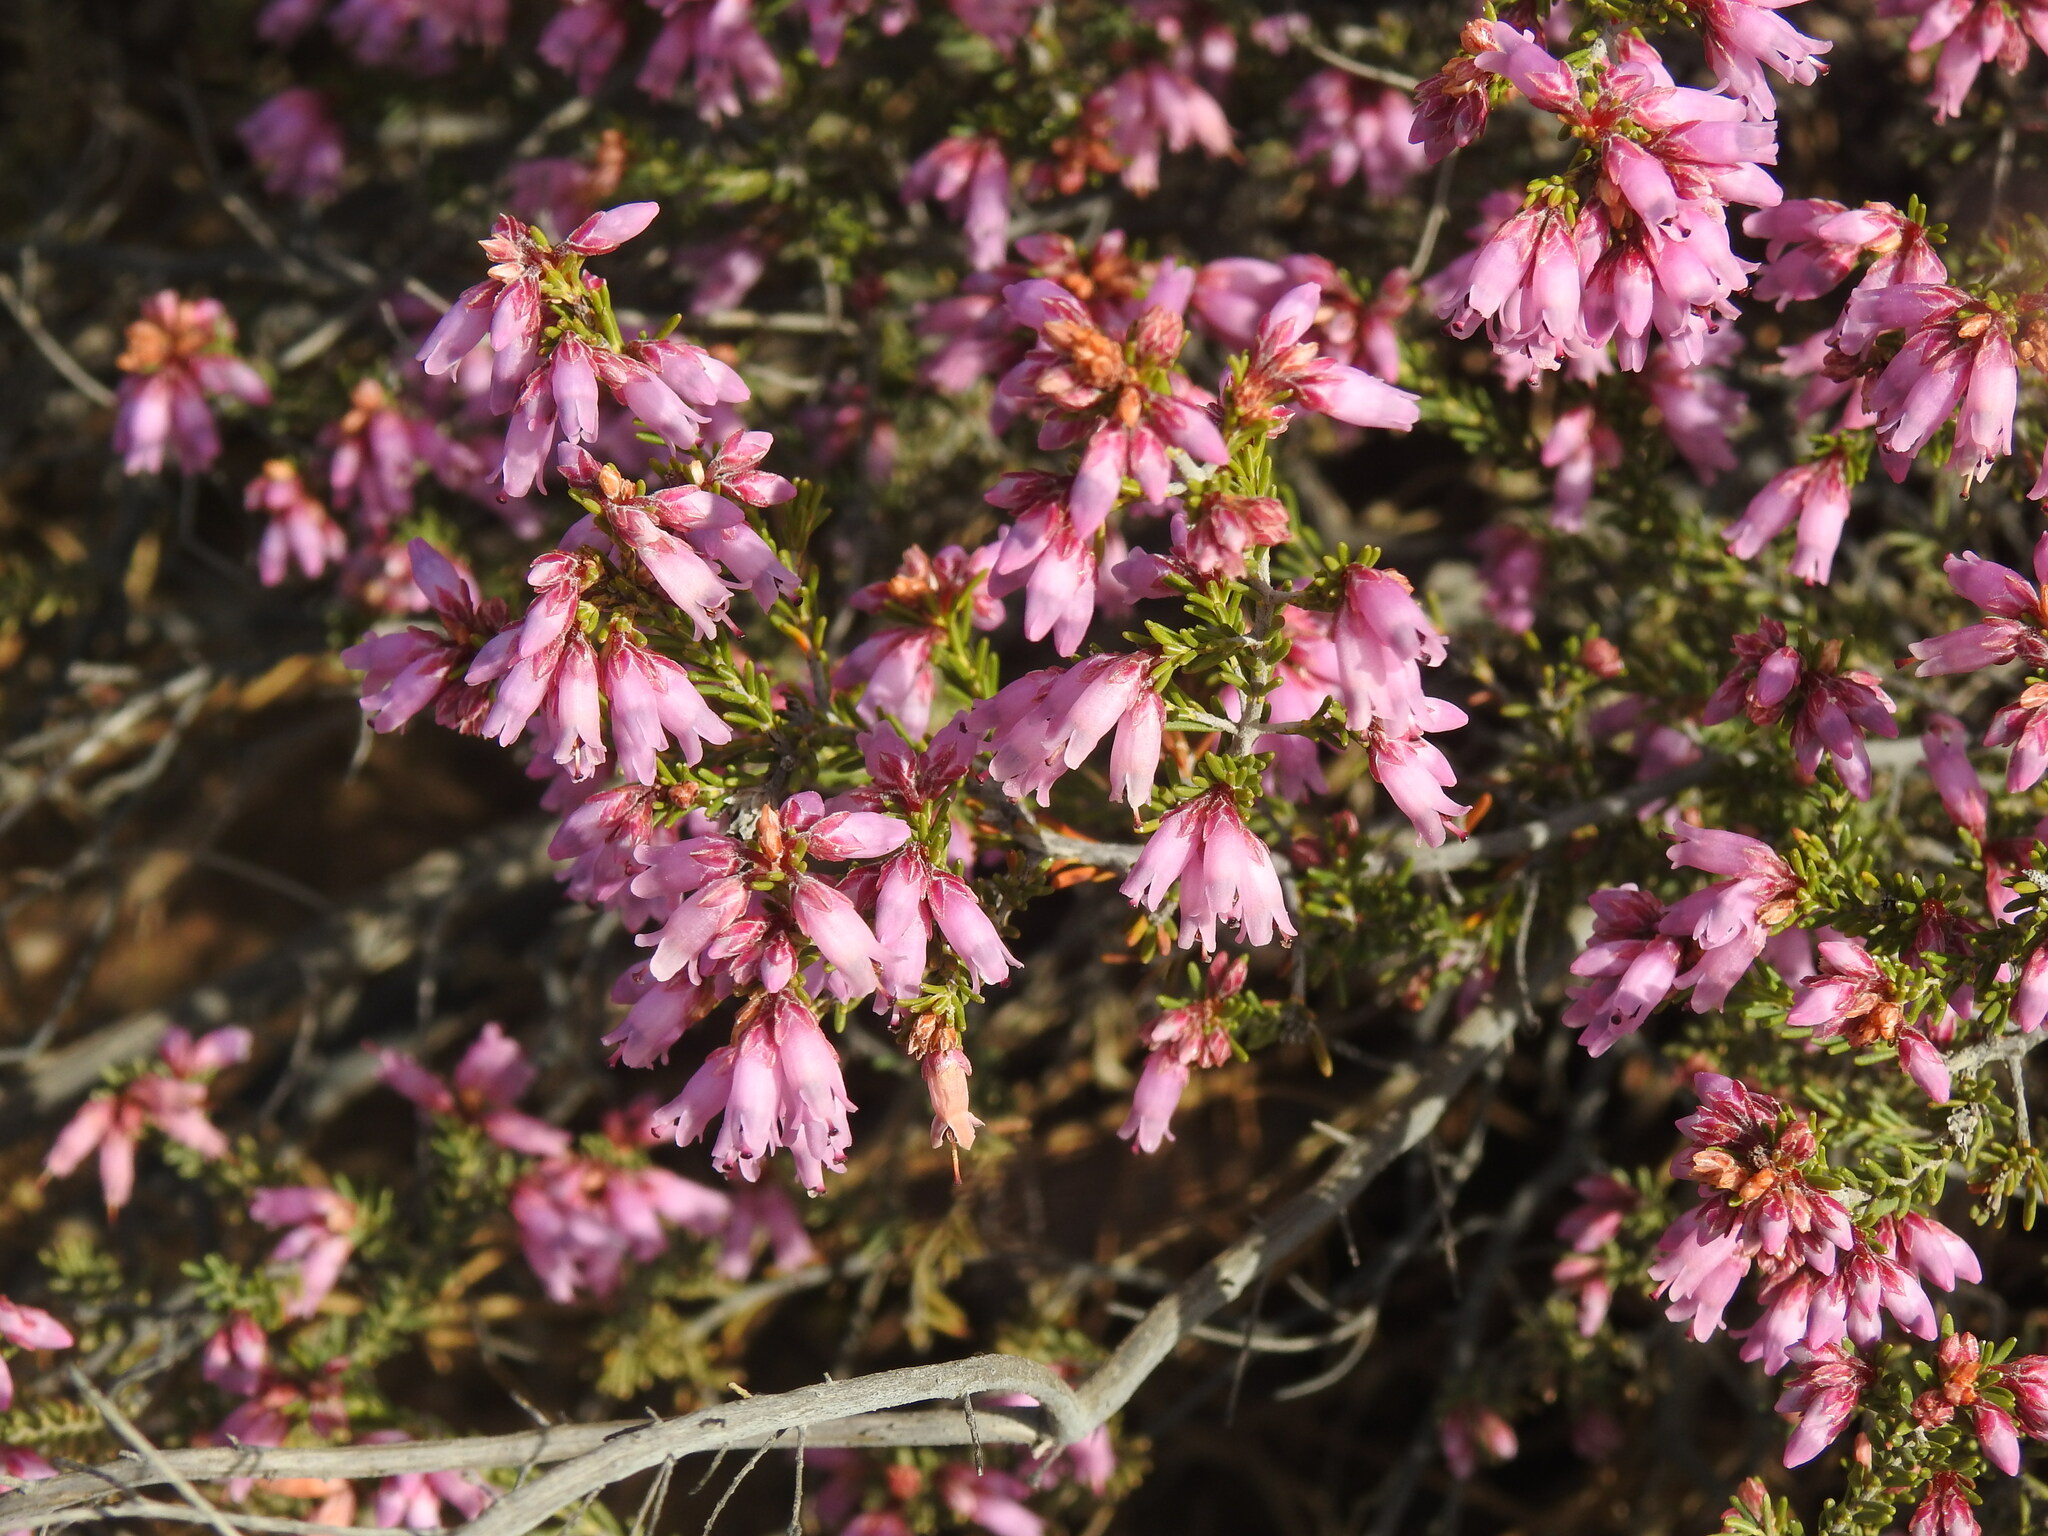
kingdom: Plantae
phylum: Tracheophyta
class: Magnoliopsida
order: Ericales
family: Ericaceae
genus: Erica
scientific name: Erica australis
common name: Spanish heath
